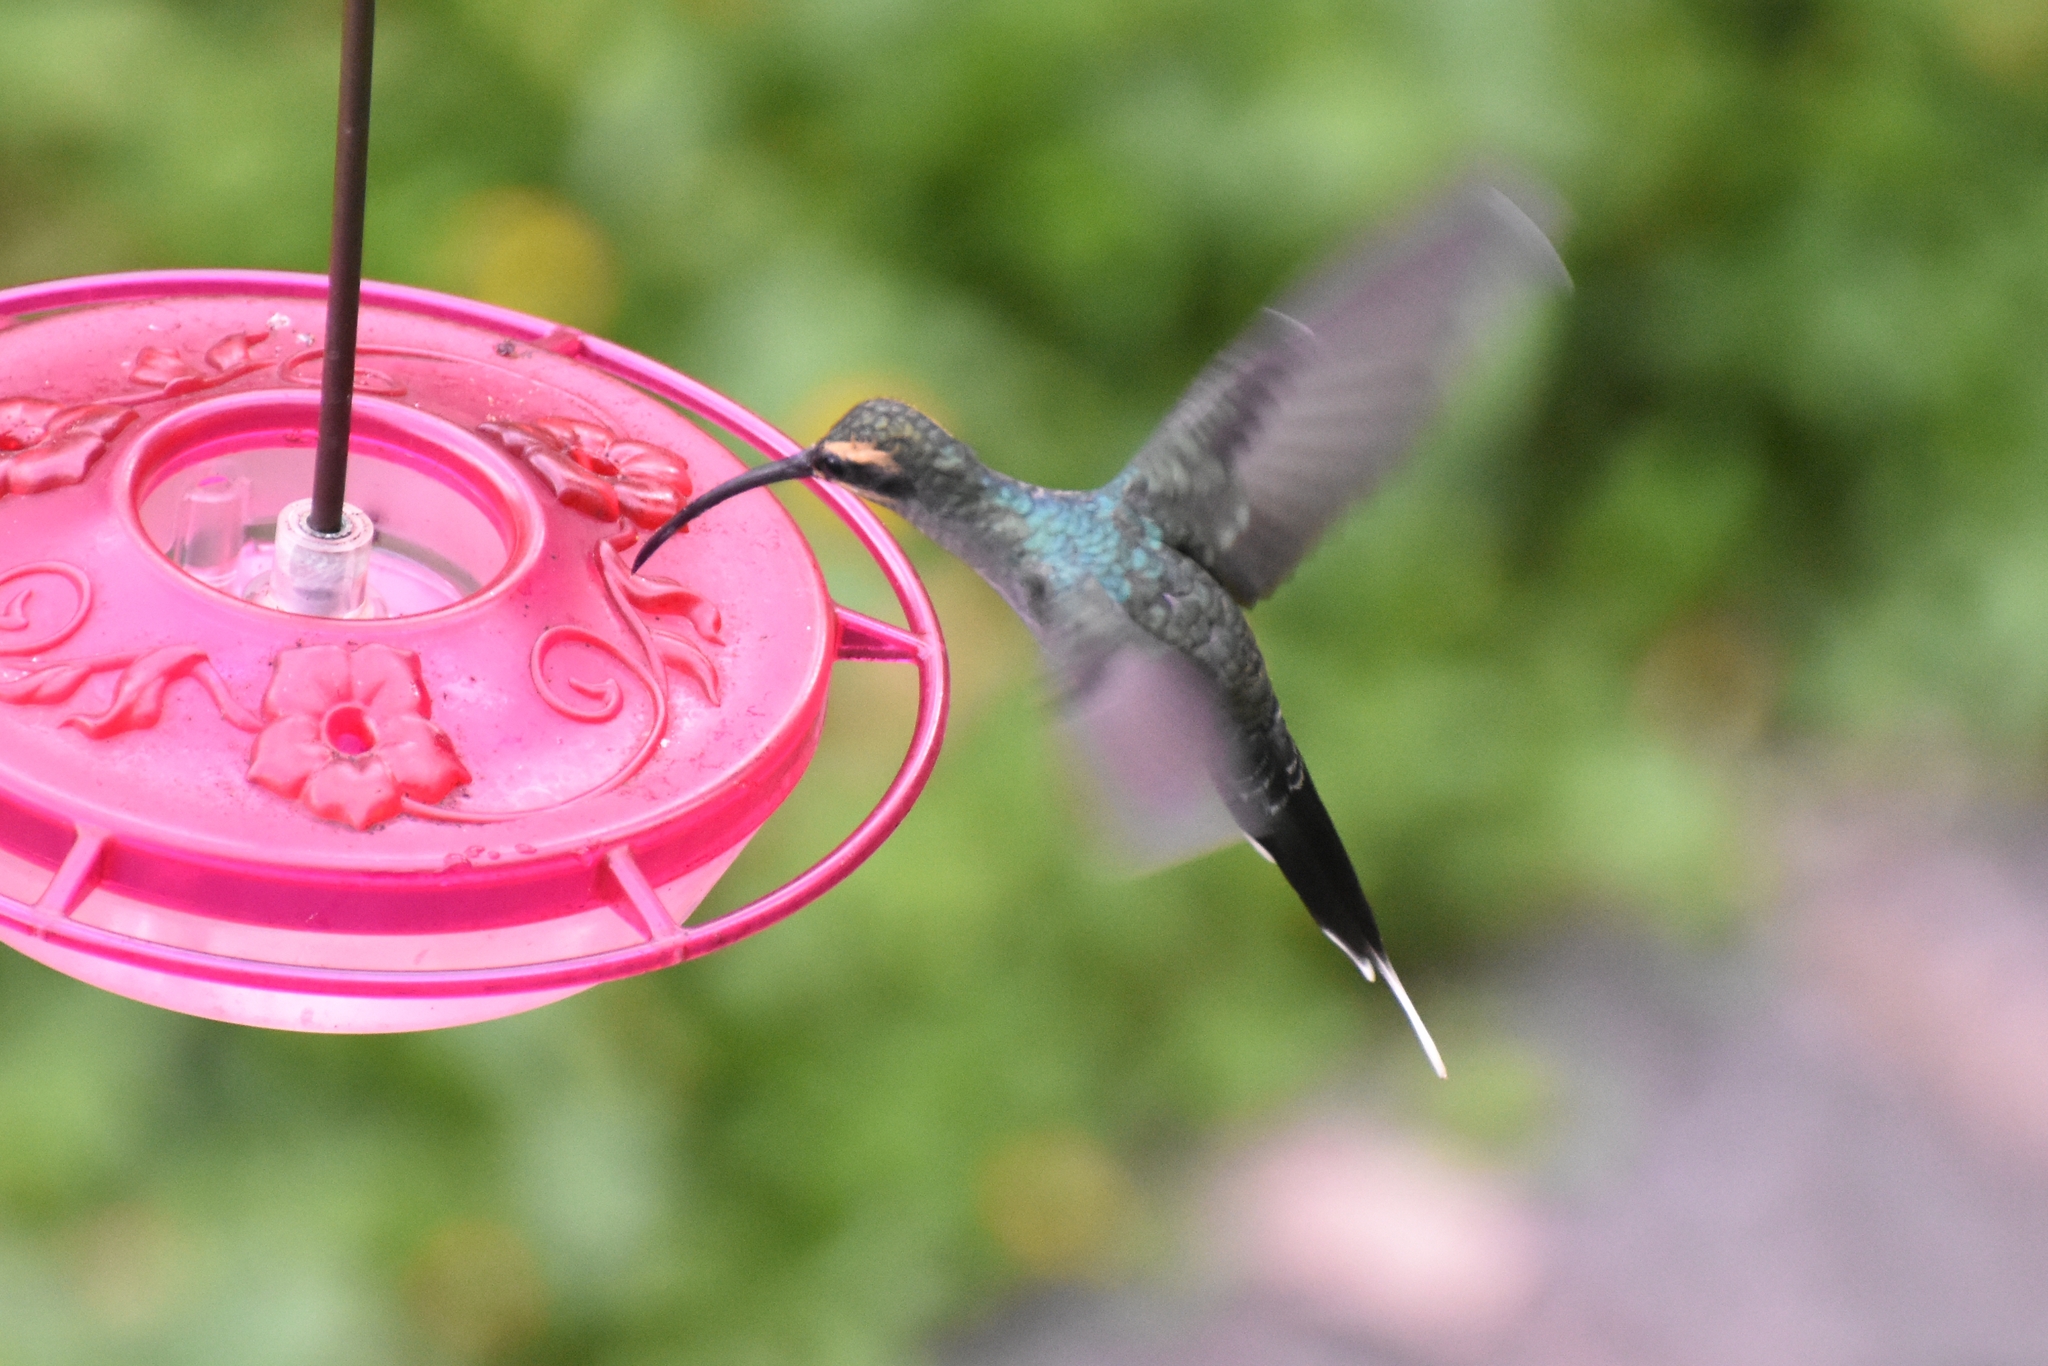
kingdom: Animalia
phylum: Chordata
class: Aves
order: Apodiformes
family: Trochilidae
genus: Phaethornis
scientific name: Phaethornis guy
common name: Green hermit
